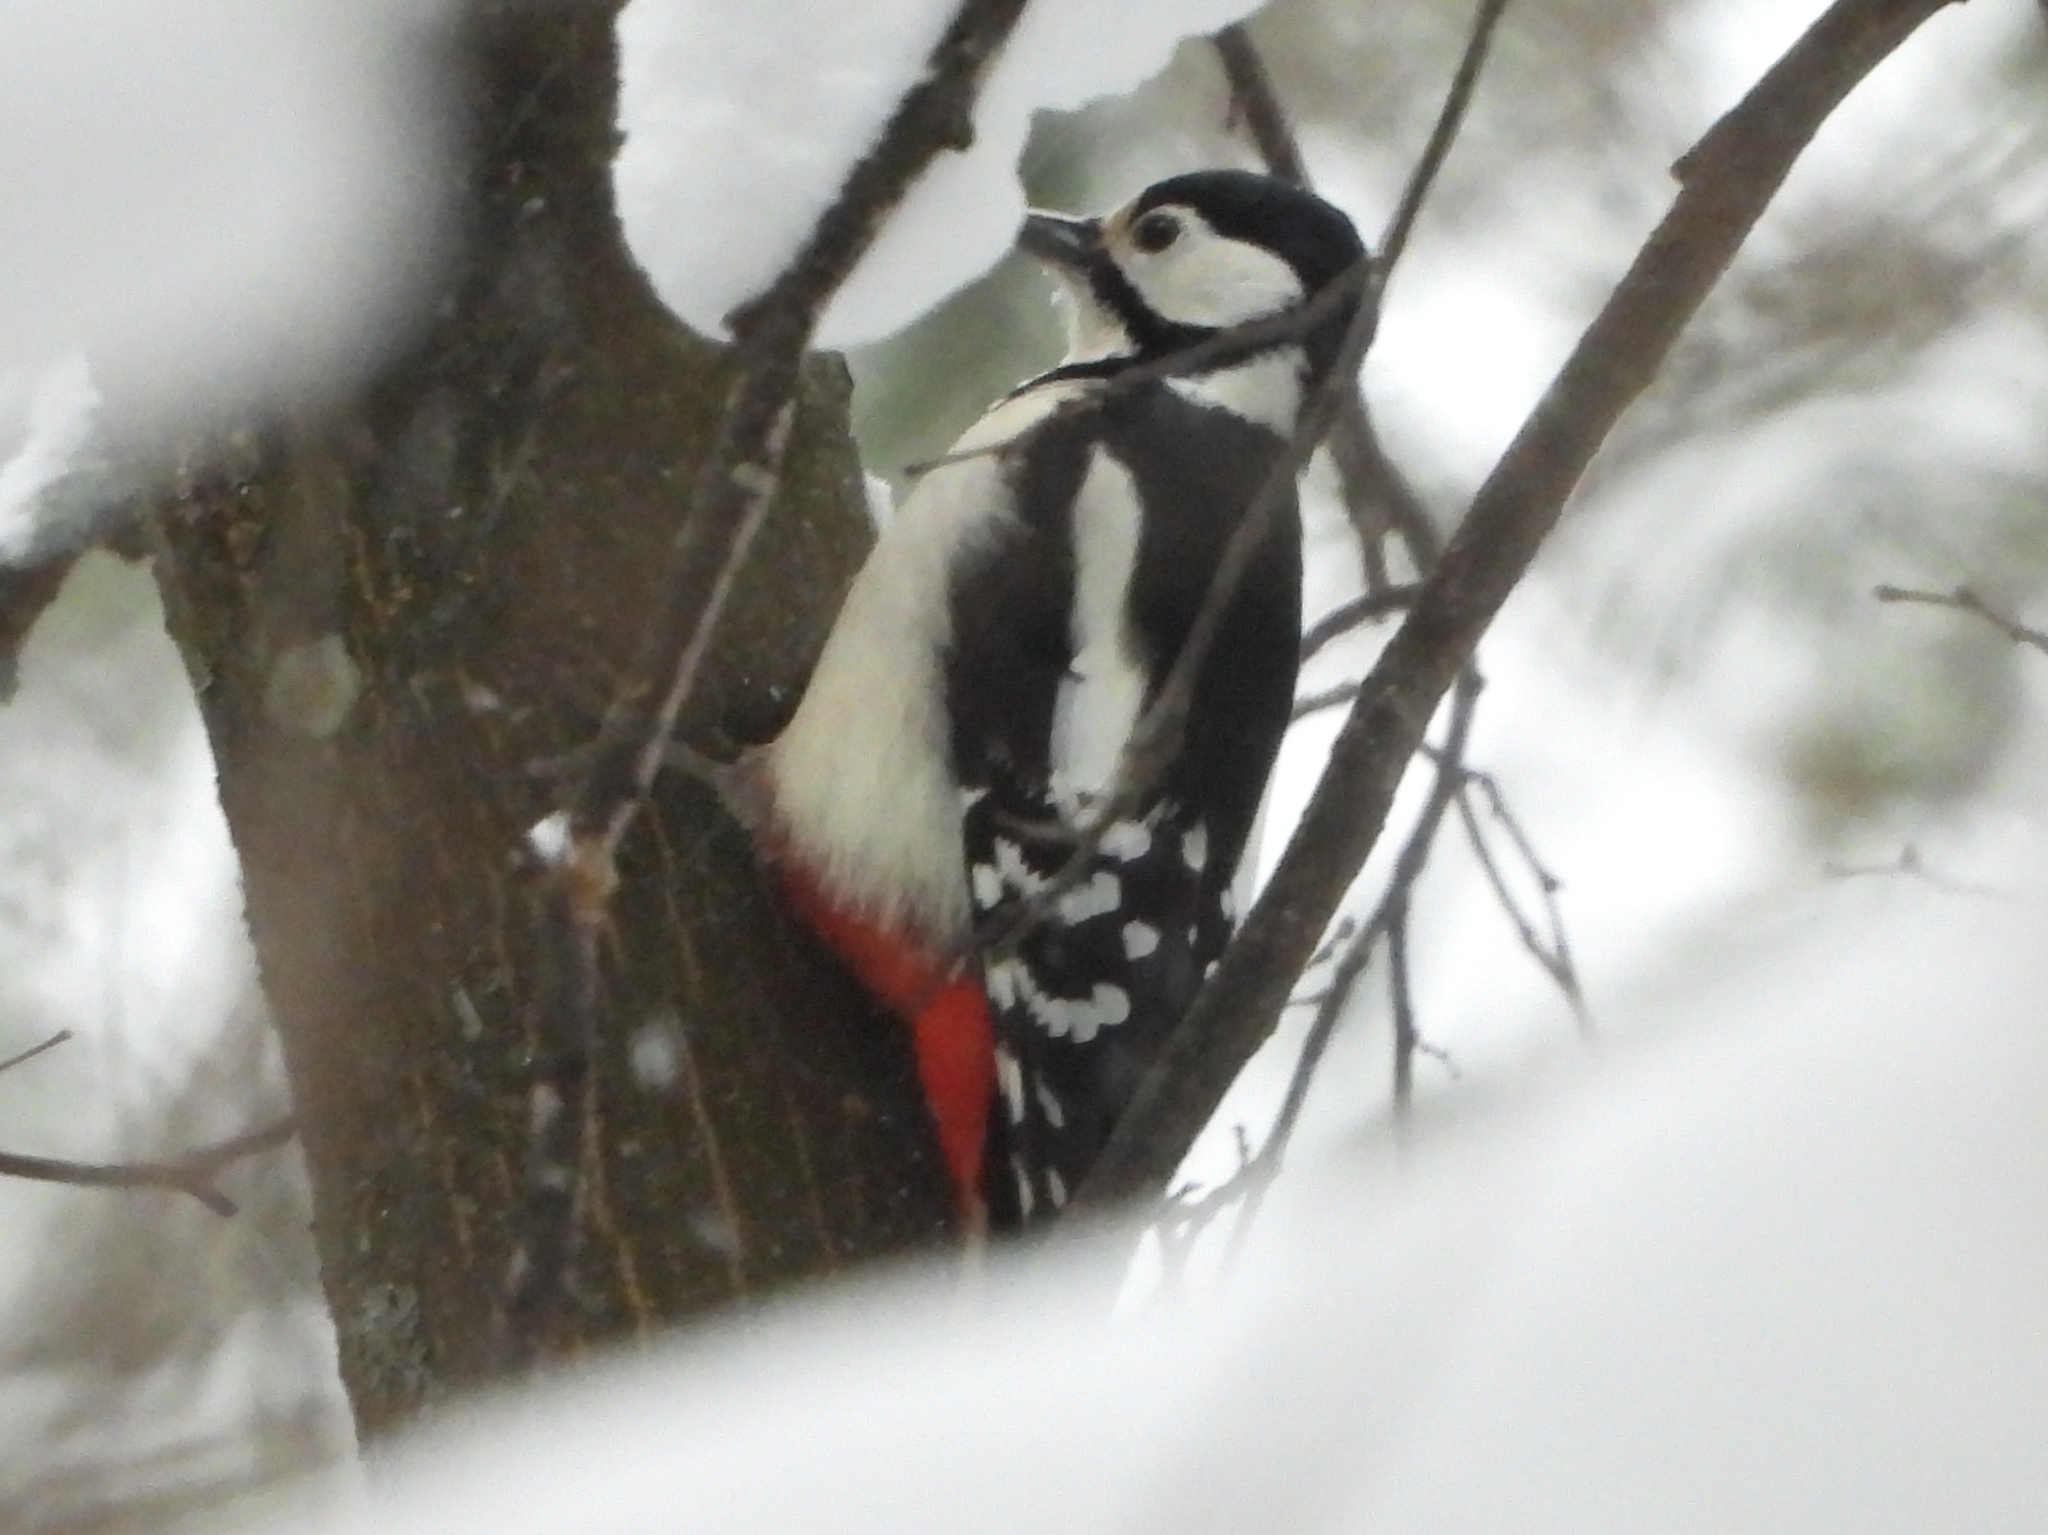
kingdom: Animalia
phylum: Chordata
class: Aves
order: Piciformes
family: Picidae
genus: Dendrocopos
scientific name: Dendrocopos major
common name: Great spotted woodpecker
